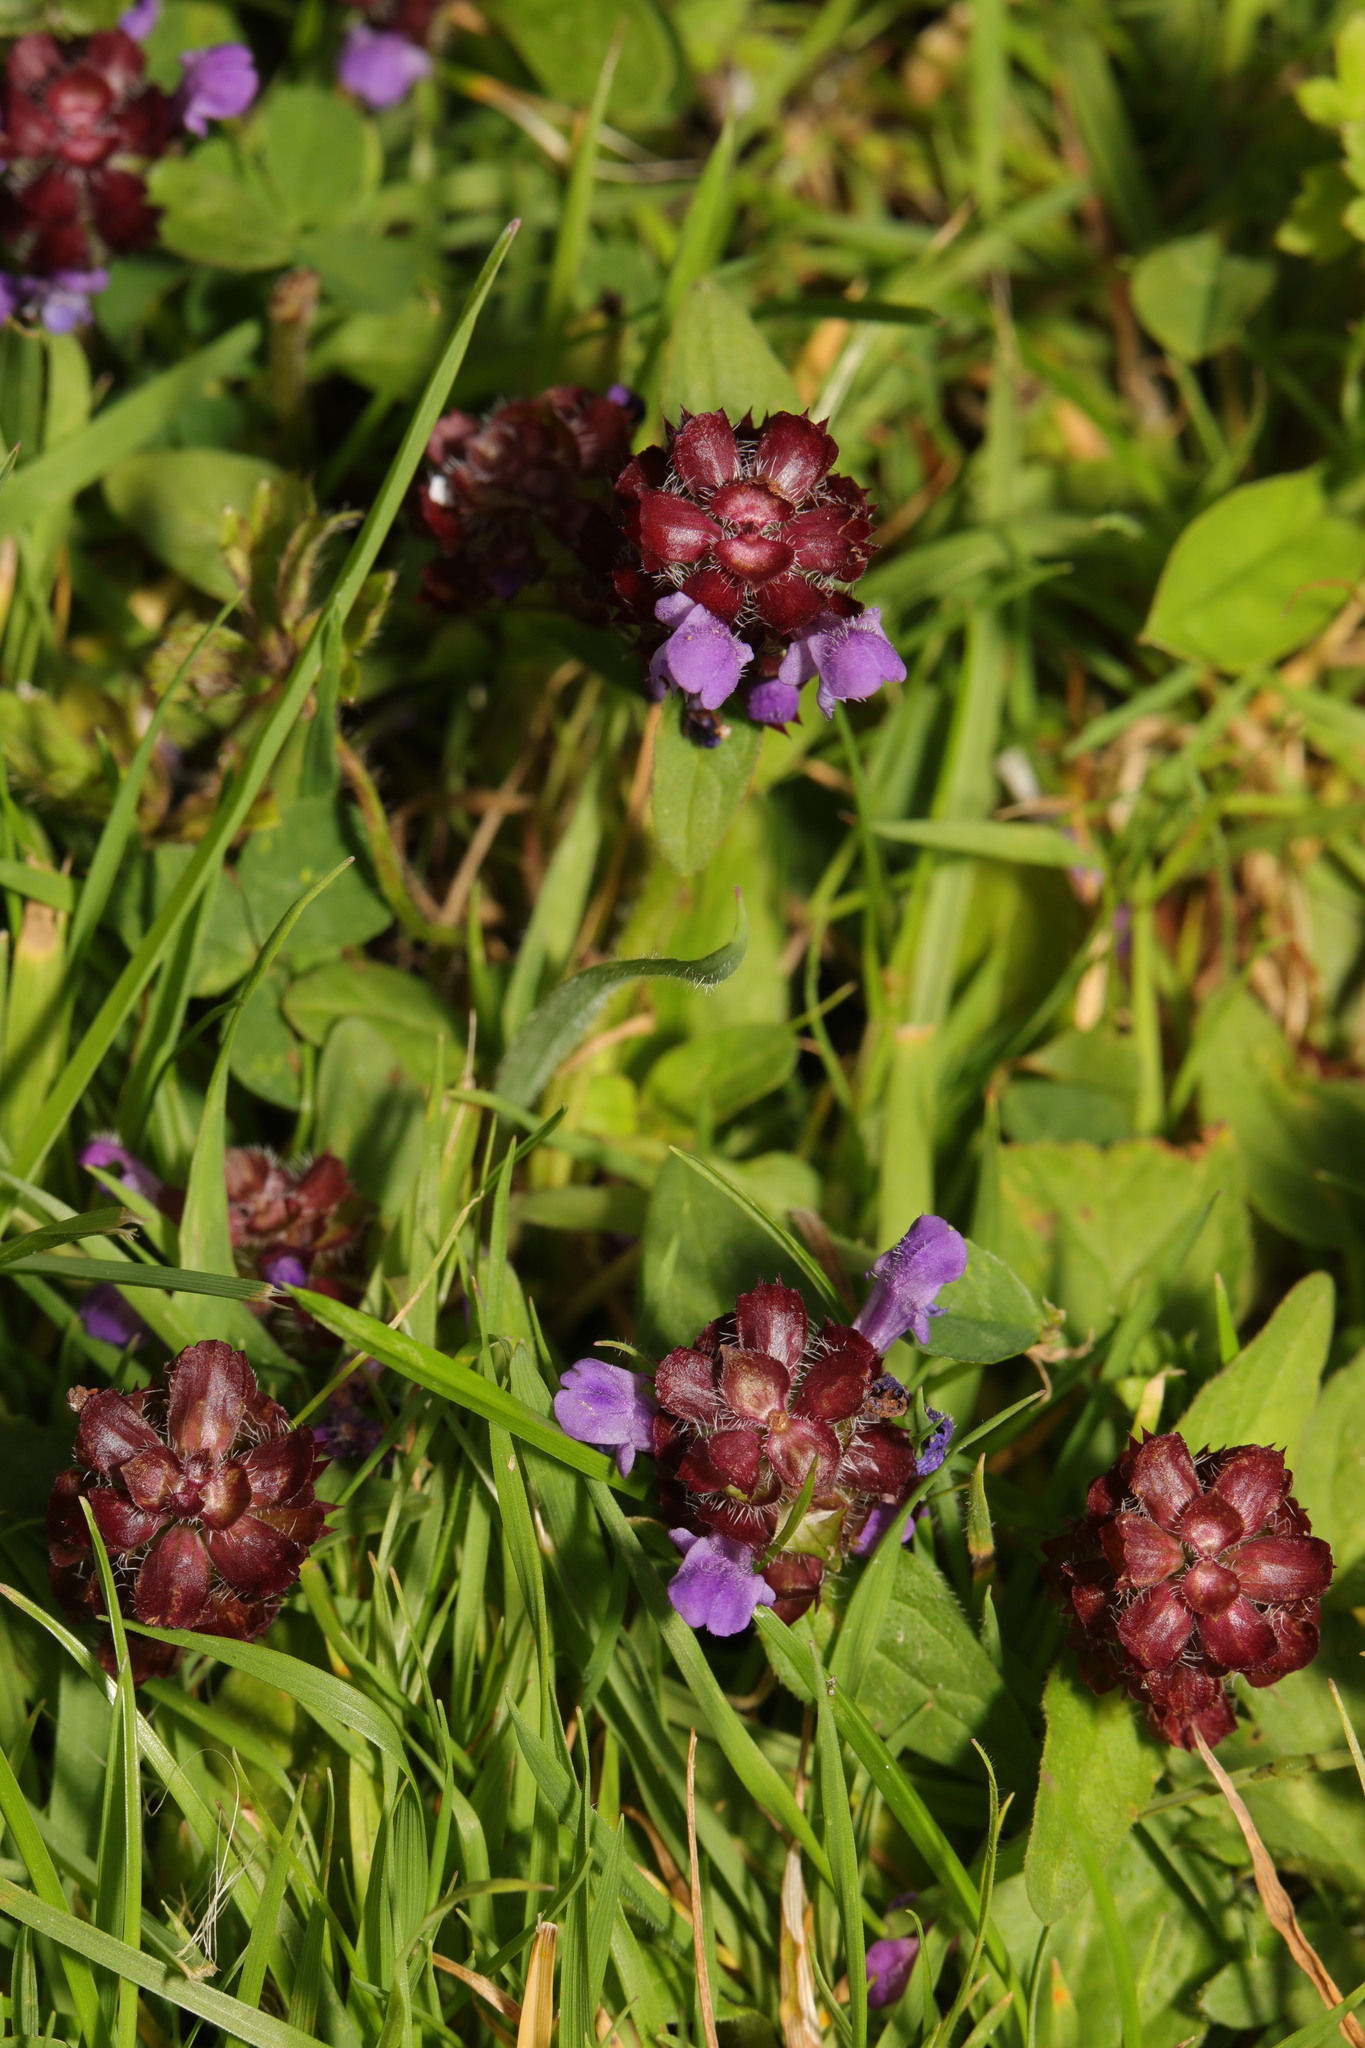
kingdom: Plantae
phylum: Tracheophyta
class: Magnoliopsida
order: Lamiales
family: Lamiaceae
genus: Prunella
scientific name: Prunella vulgaris
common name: Heal-all
